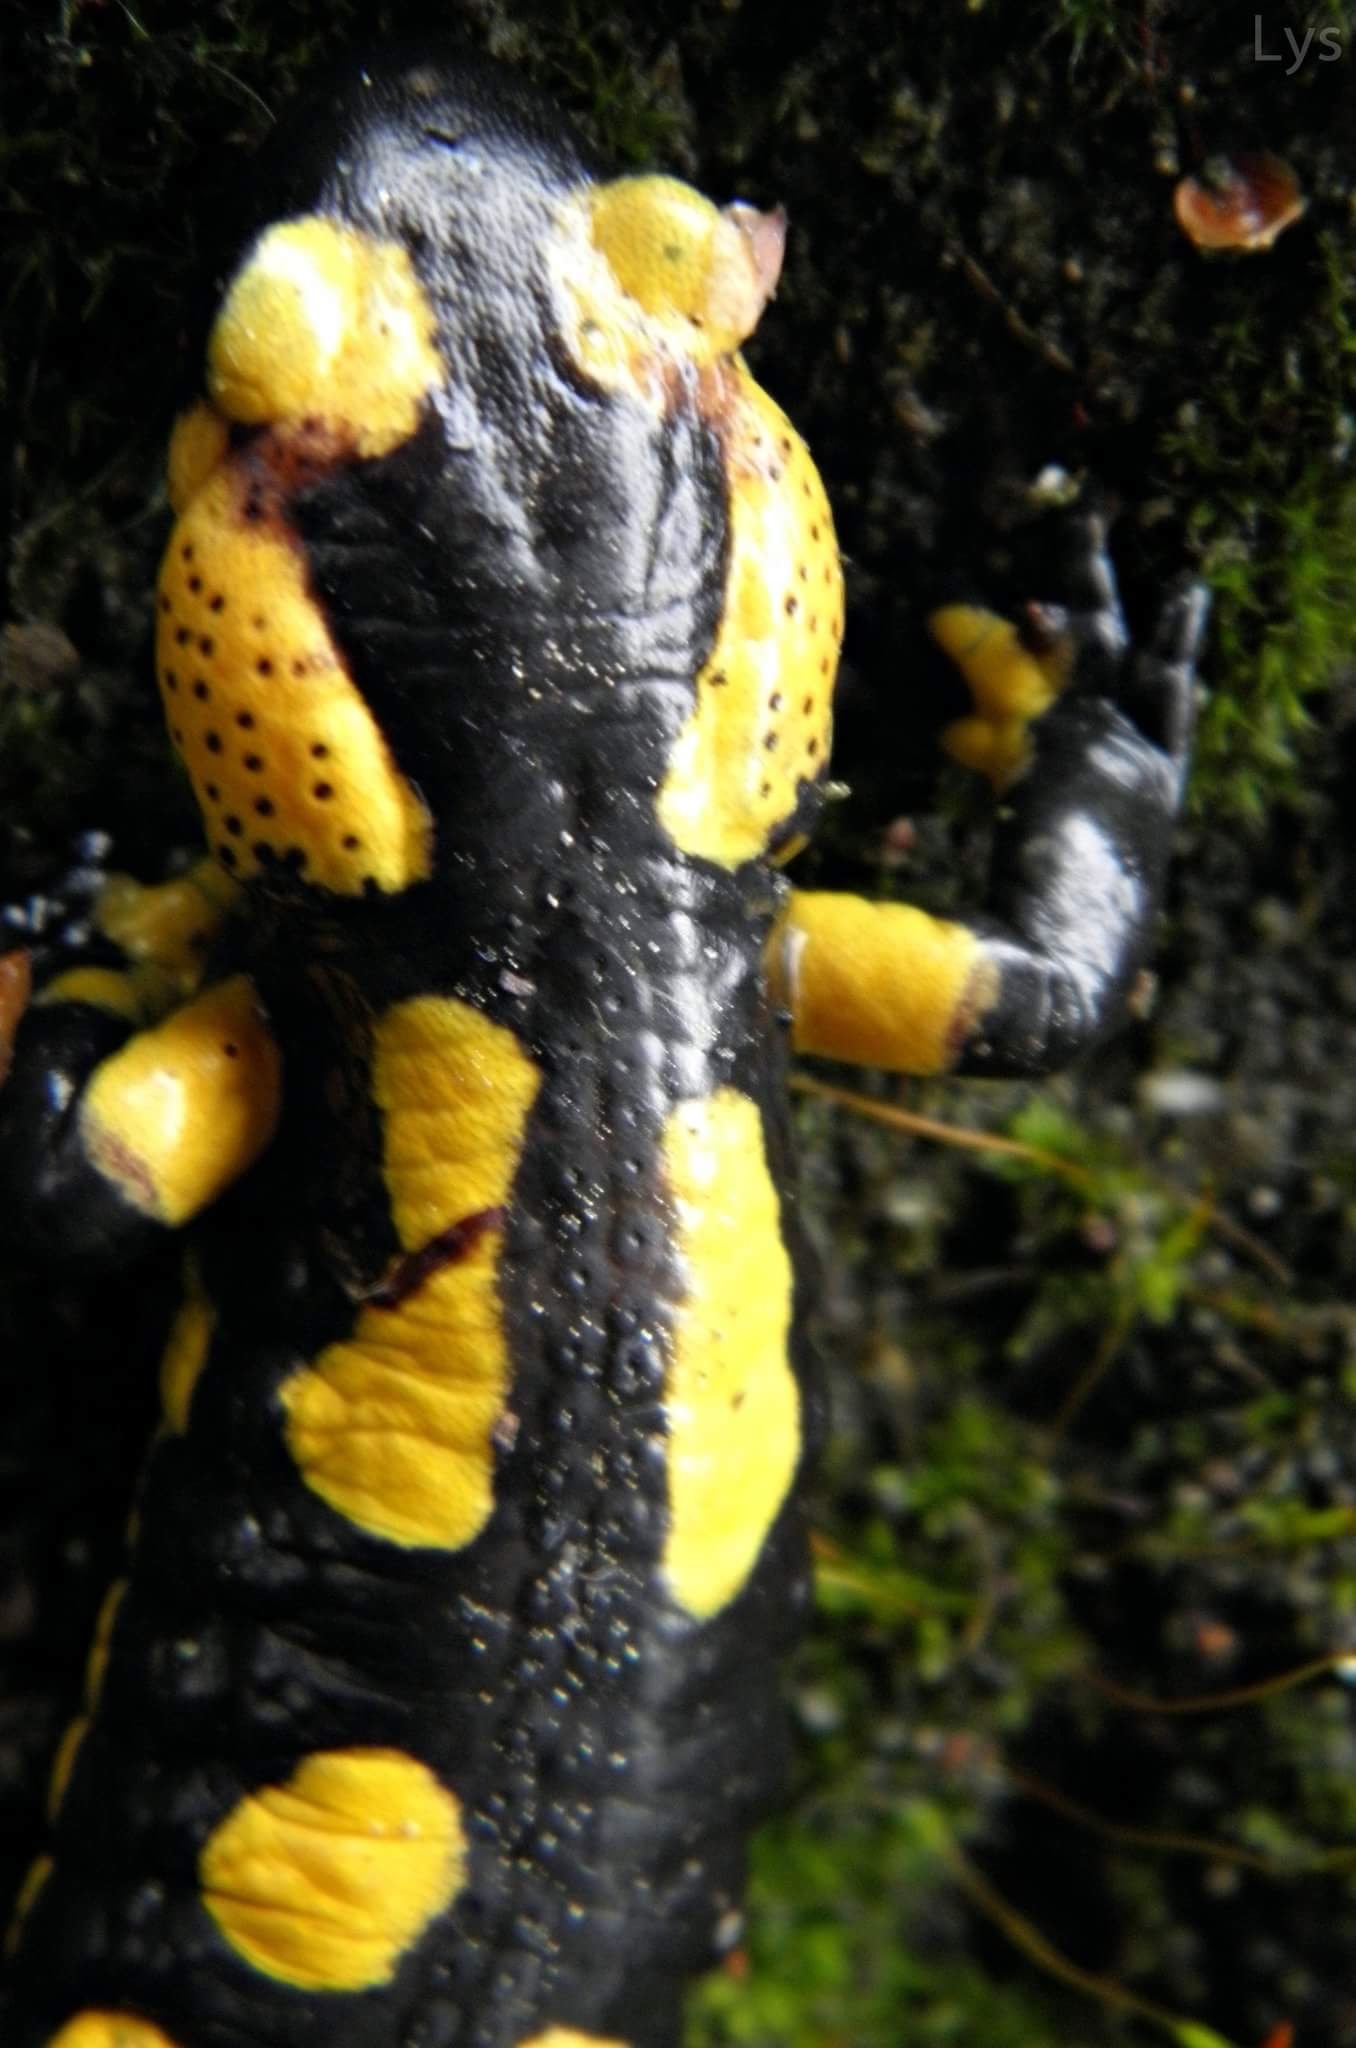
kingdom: Animalia
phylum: Chordata
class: Amphibia
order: Caudata
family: Salamandridae
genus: Salamandra
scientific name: Salamandra salamandra
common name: Fire salamander
